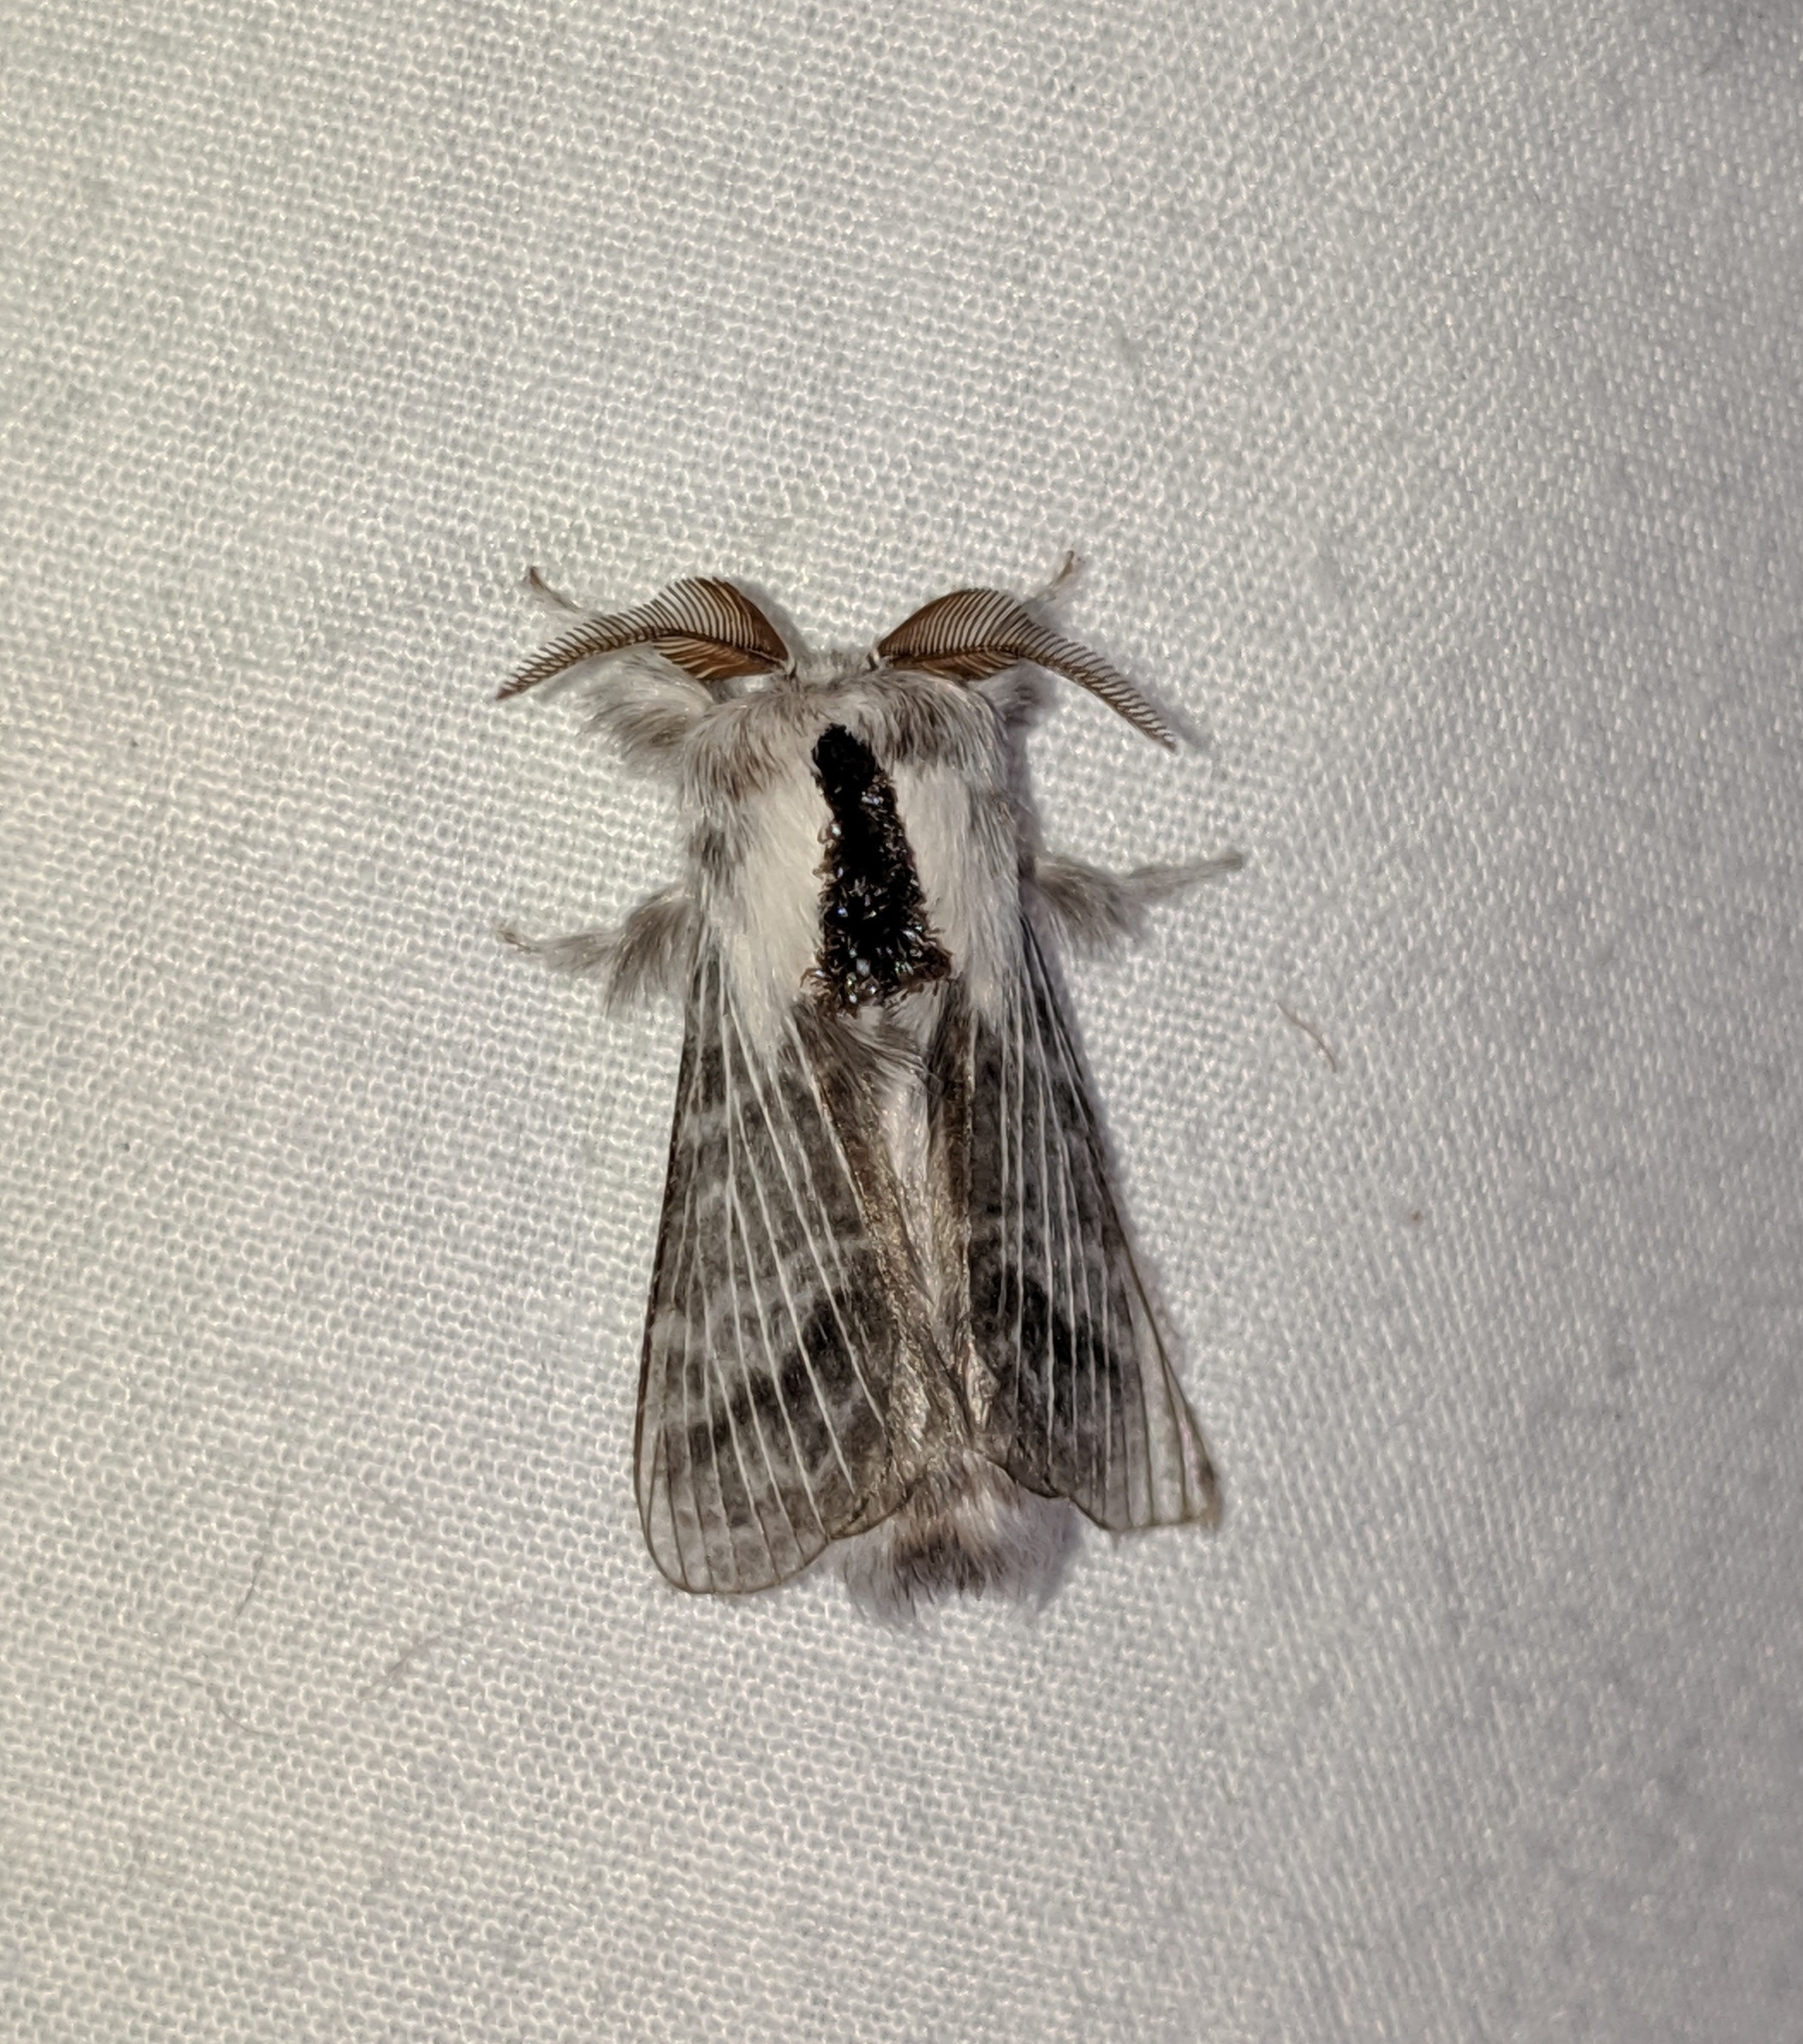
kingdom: Animalia
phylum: Arthropoda
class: Insecta
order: Lepidoptera
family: Lasiocampidae
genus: Tolype
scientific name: Tolype dayi
